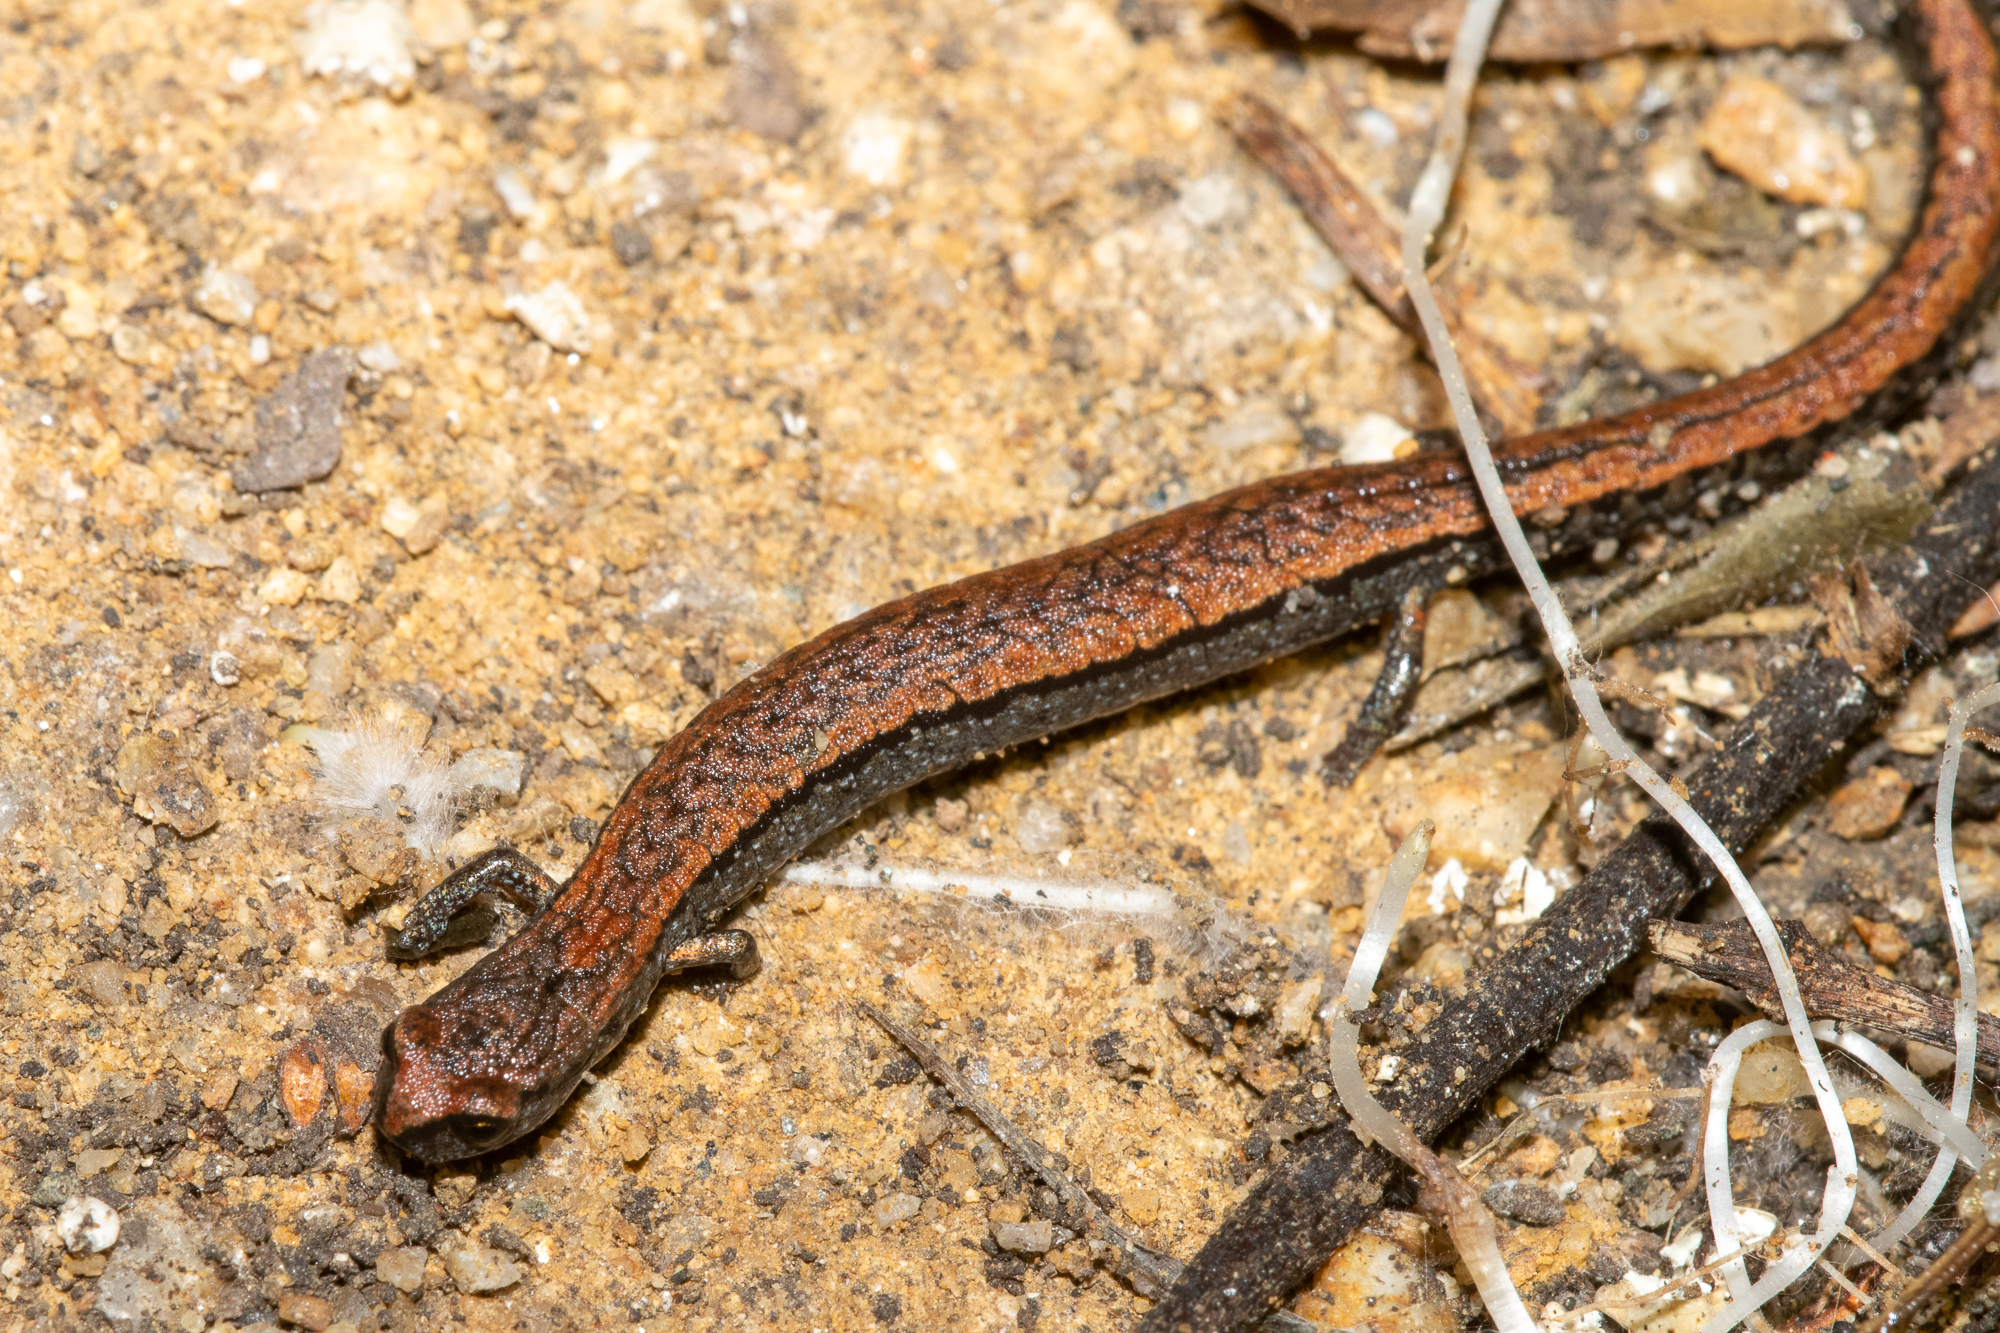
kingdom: Animalia
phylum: Chordata
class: Amphibia
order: Caudata
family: Plethodontidae
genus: Batrachoseps
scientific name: Batrachoseps attenuatus
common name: California slender salamander
